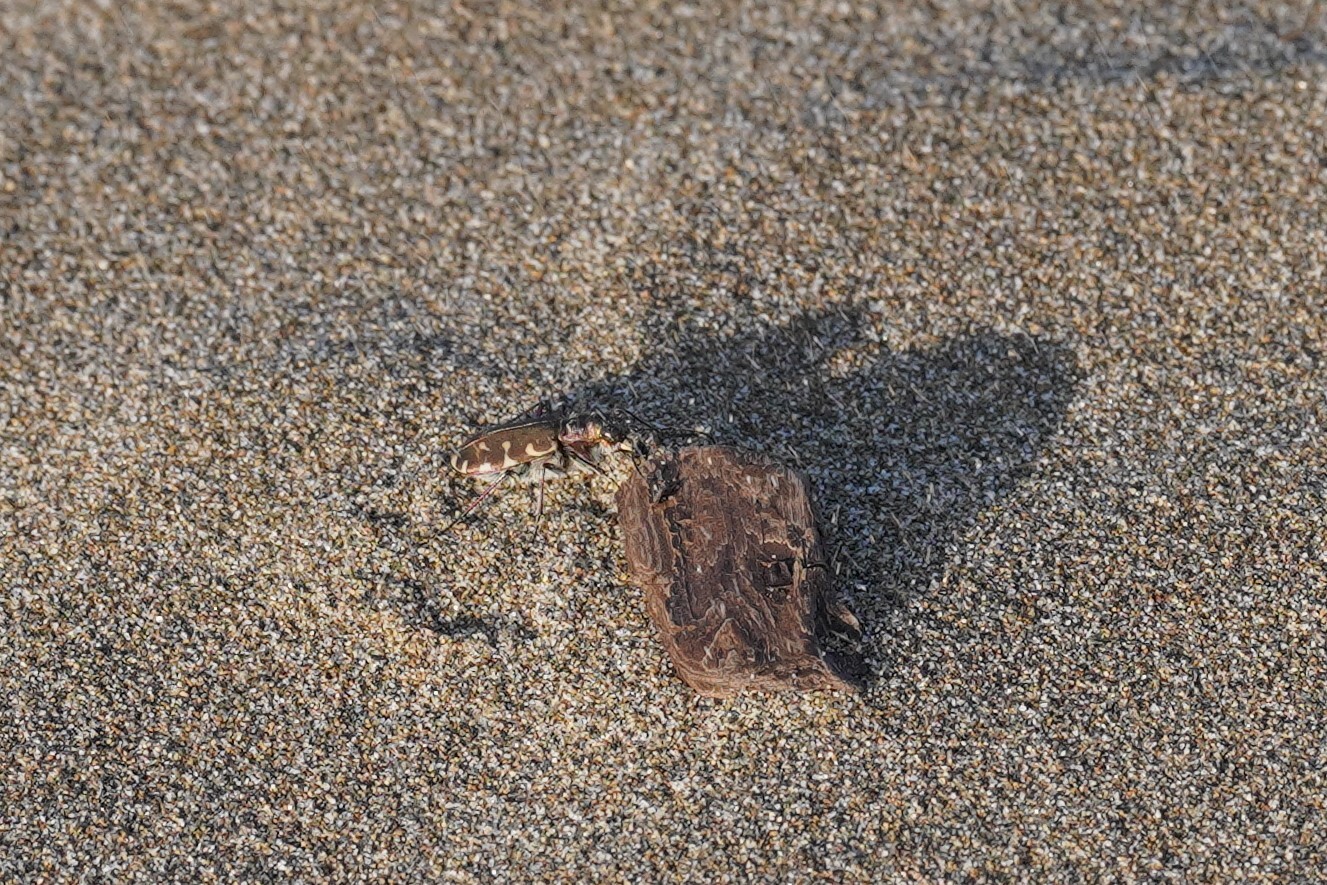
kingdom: Animalia
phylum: Arthropoda
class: Insecta
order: Coleoptera
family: Carabidae
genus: Cicindela
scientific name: Cicindela littoralis
